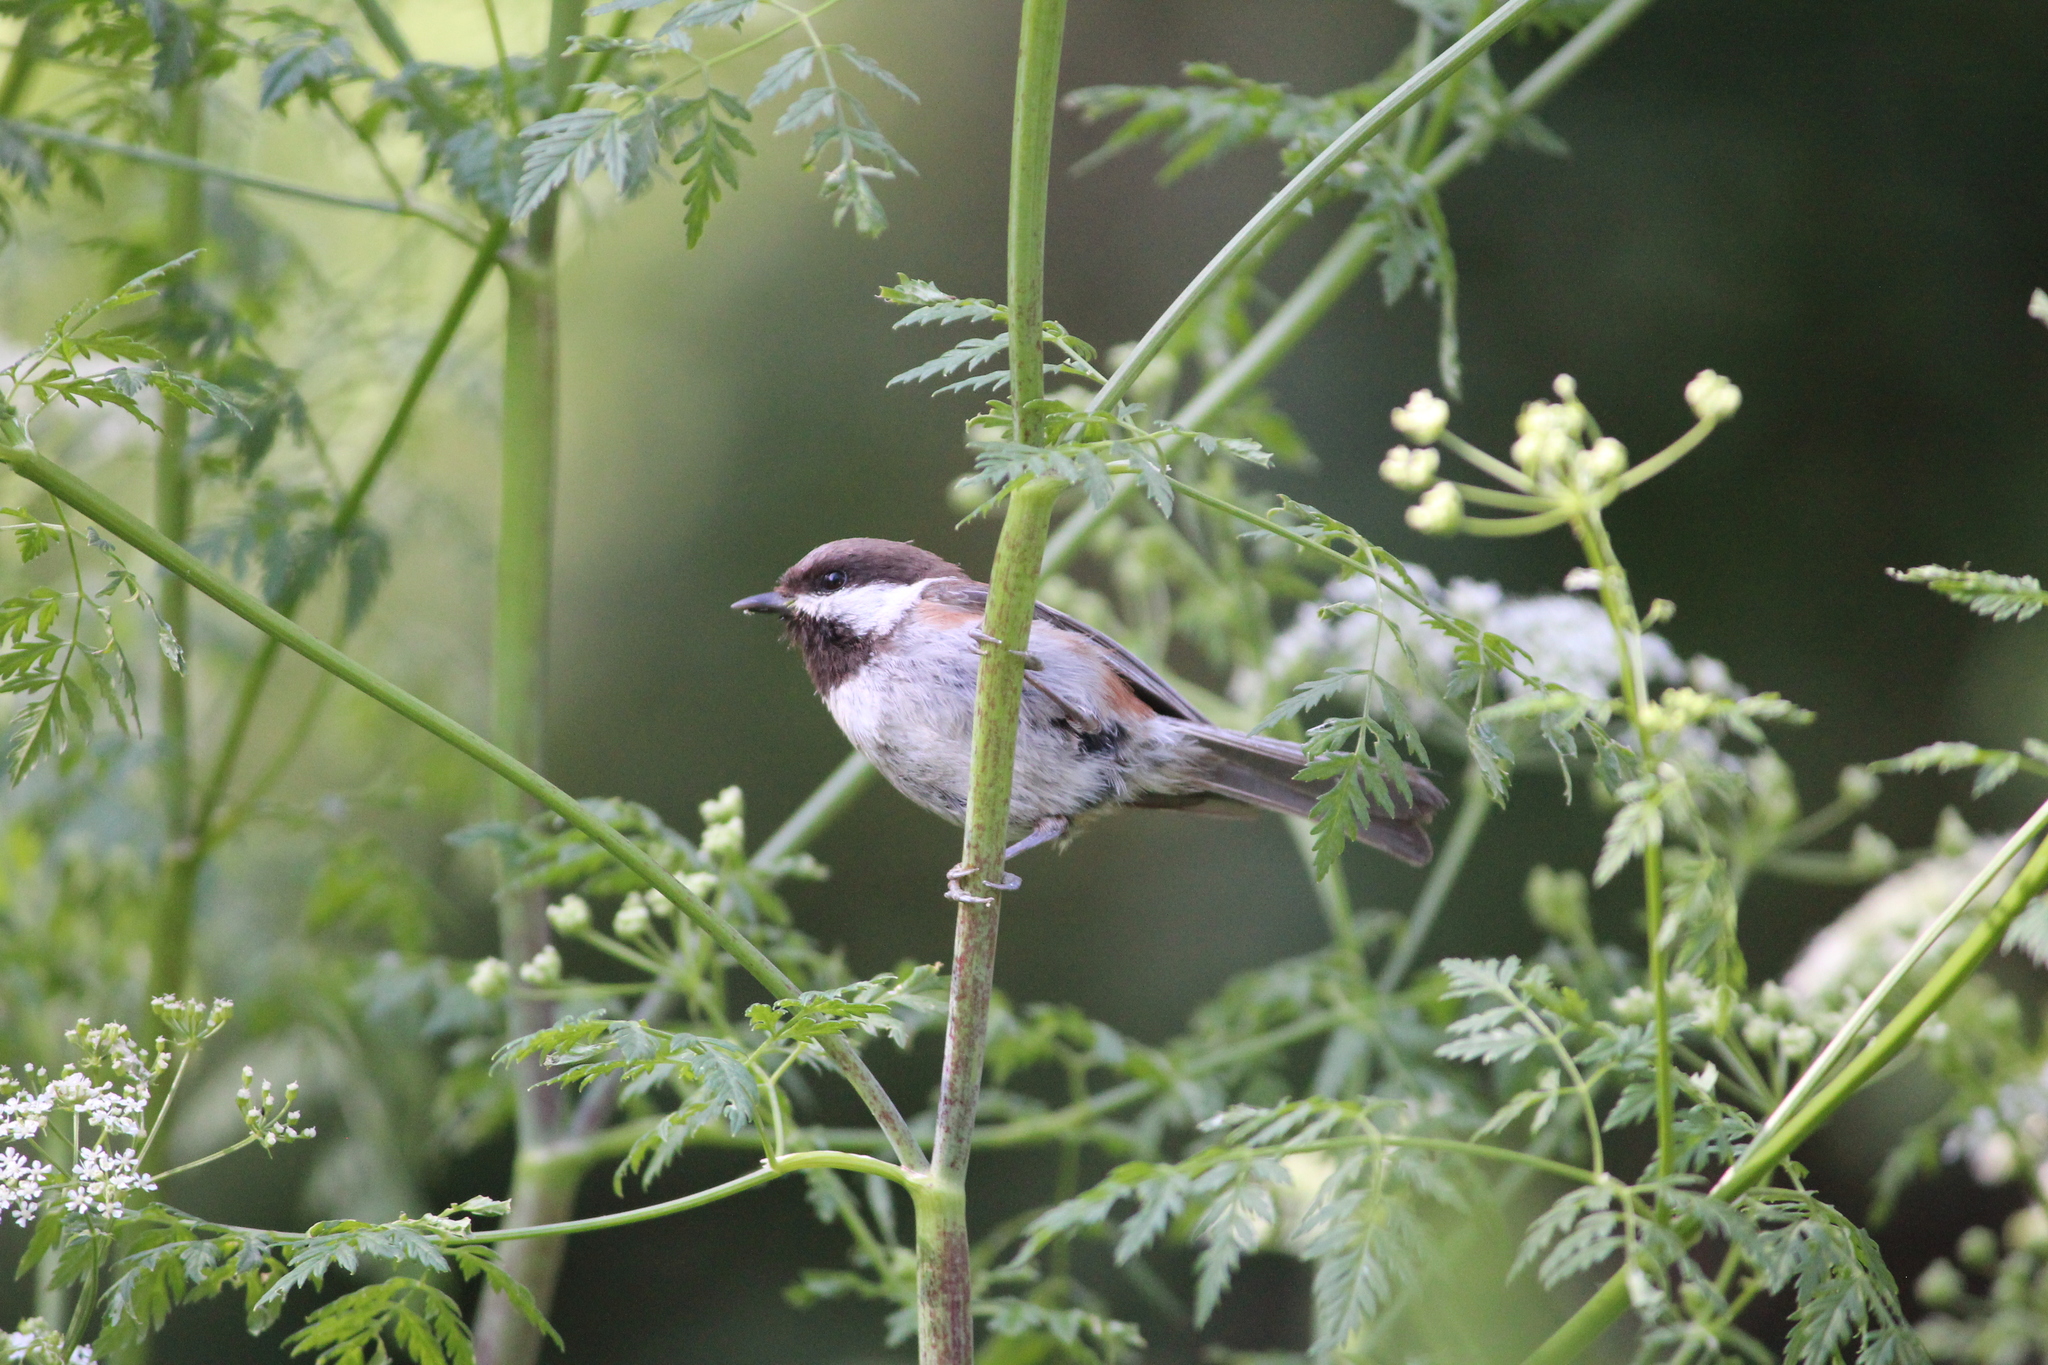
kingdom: Animalia
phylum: Chordata
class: Aves
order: Passeriformes
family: Paridae
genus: Poecile
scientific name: Poecile rufescens
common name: Chestnut-backed chickadee
